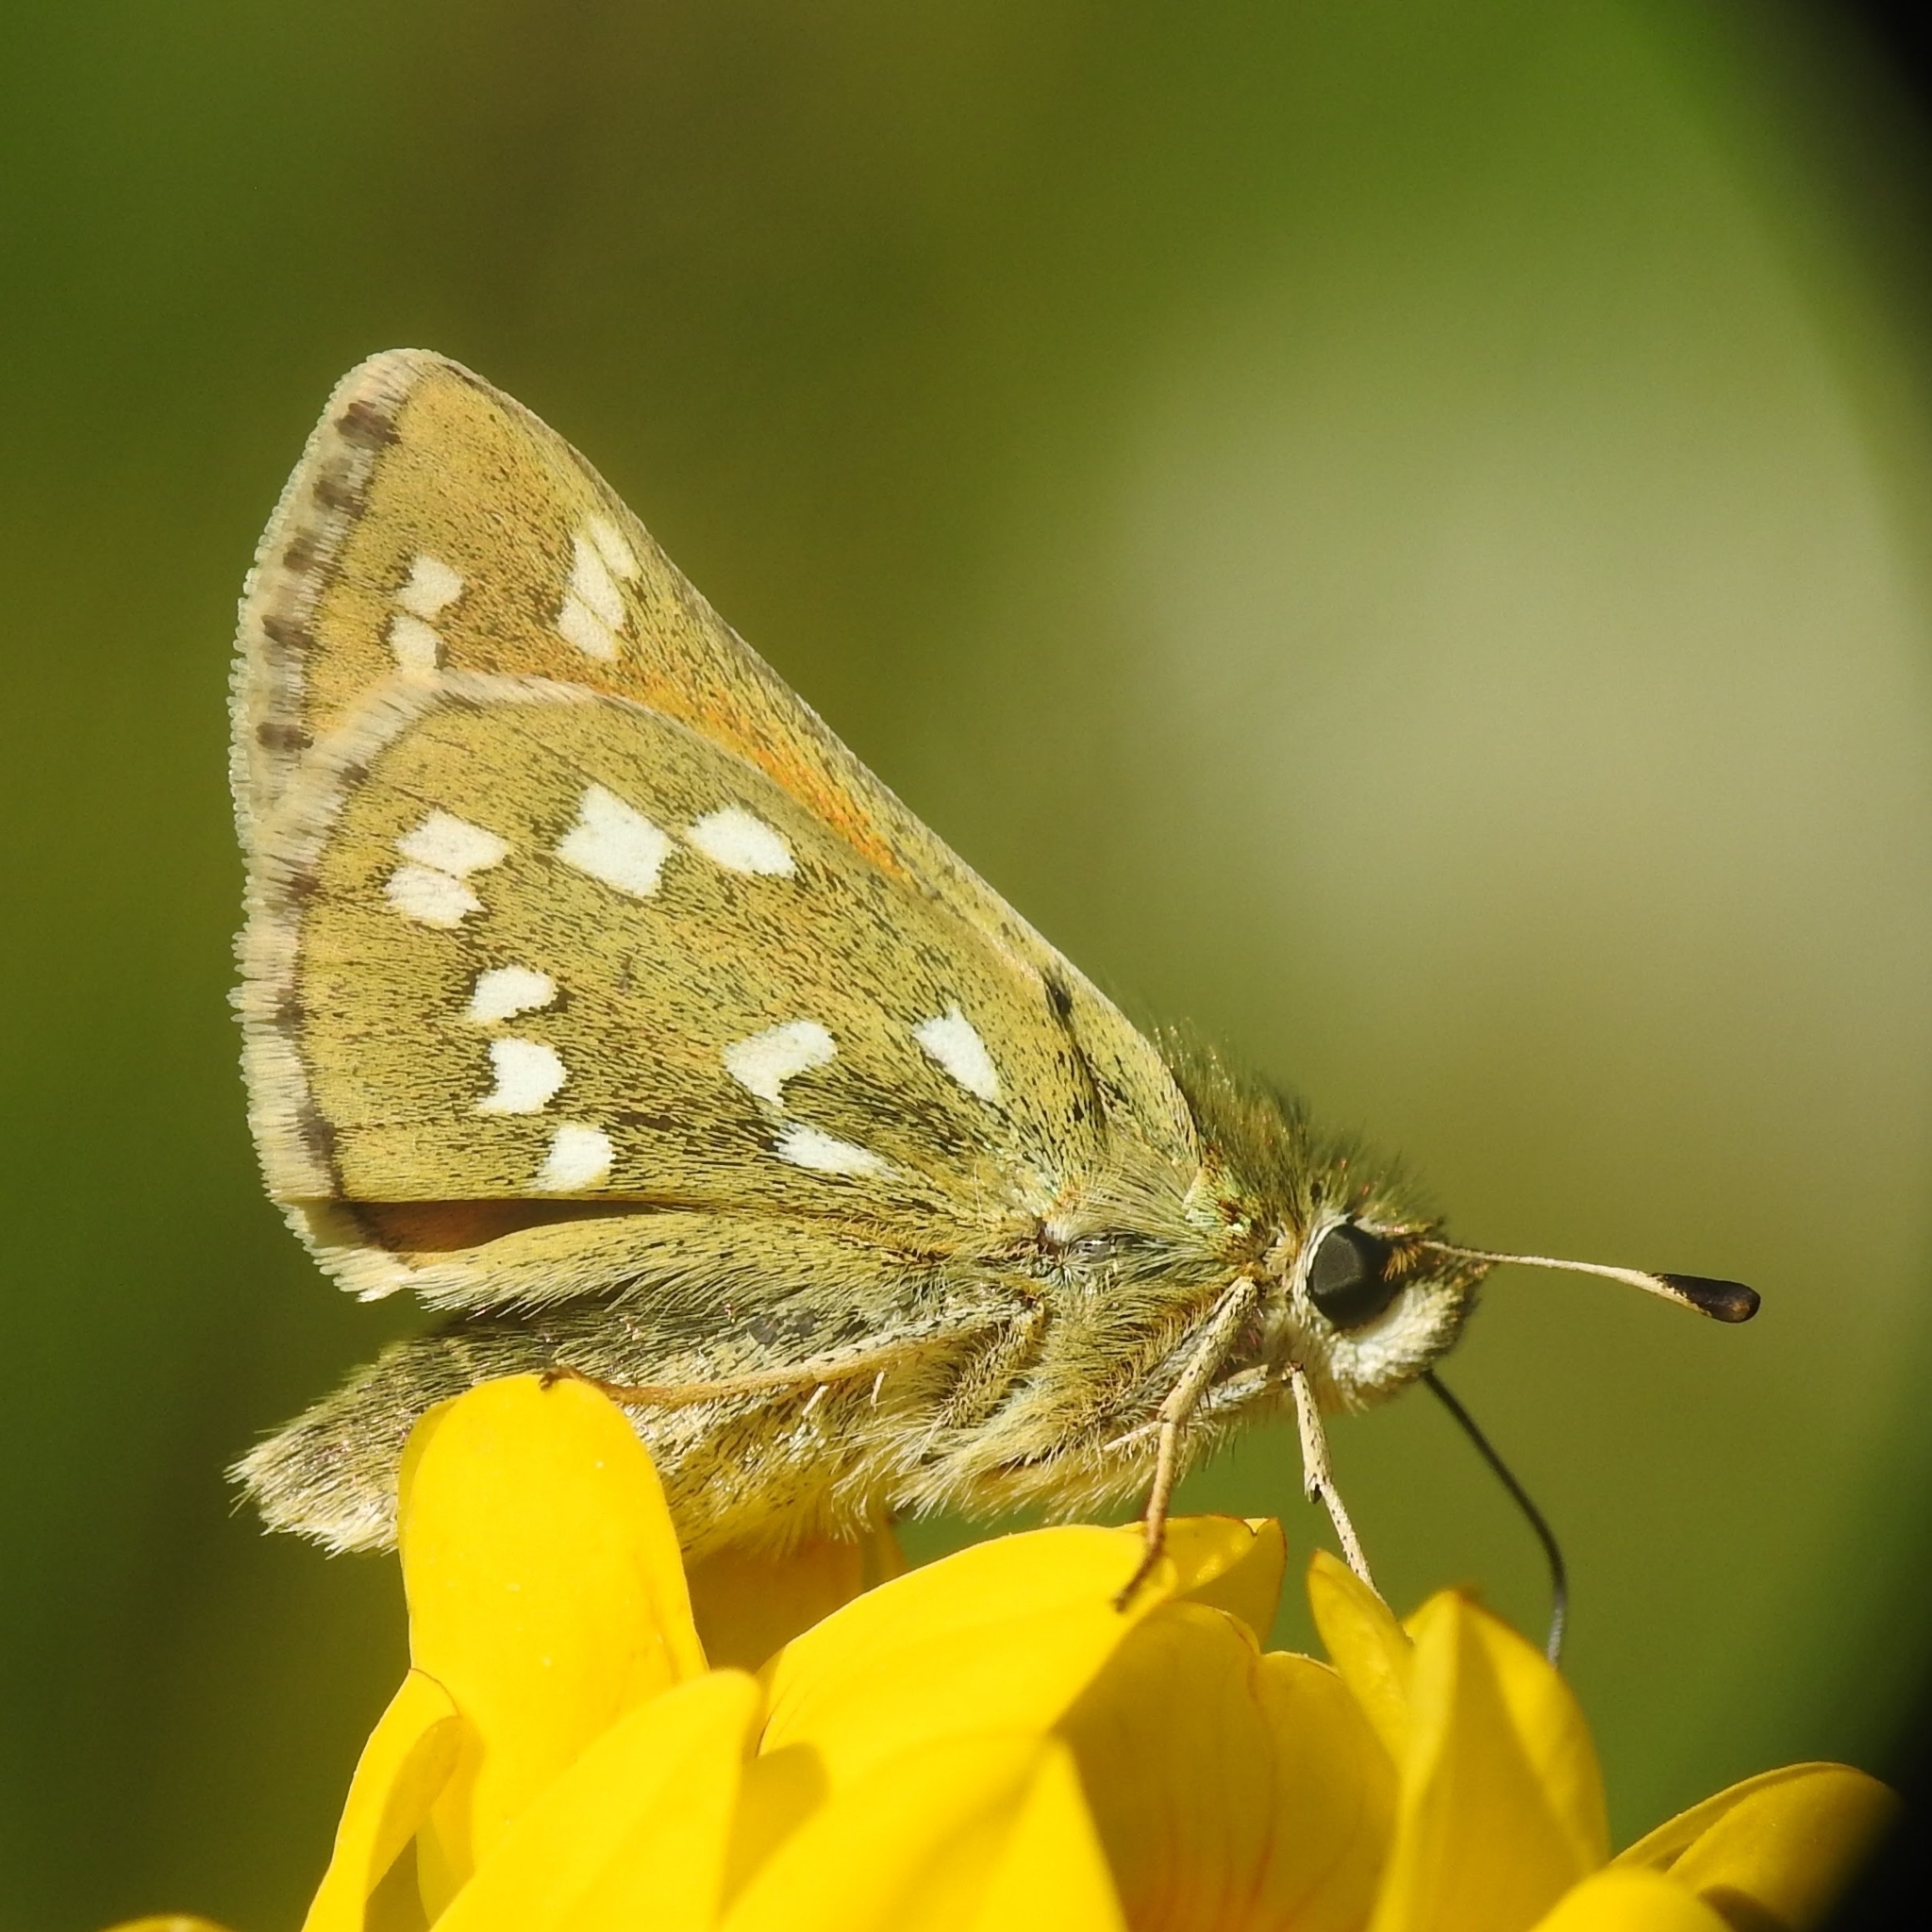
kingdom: Animalia
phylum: Arthropoda
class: Insecta
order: Lepidoptera
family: Hesperiidae
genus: Hesperia
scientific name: Hesperia comma
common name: Common branded skipper
